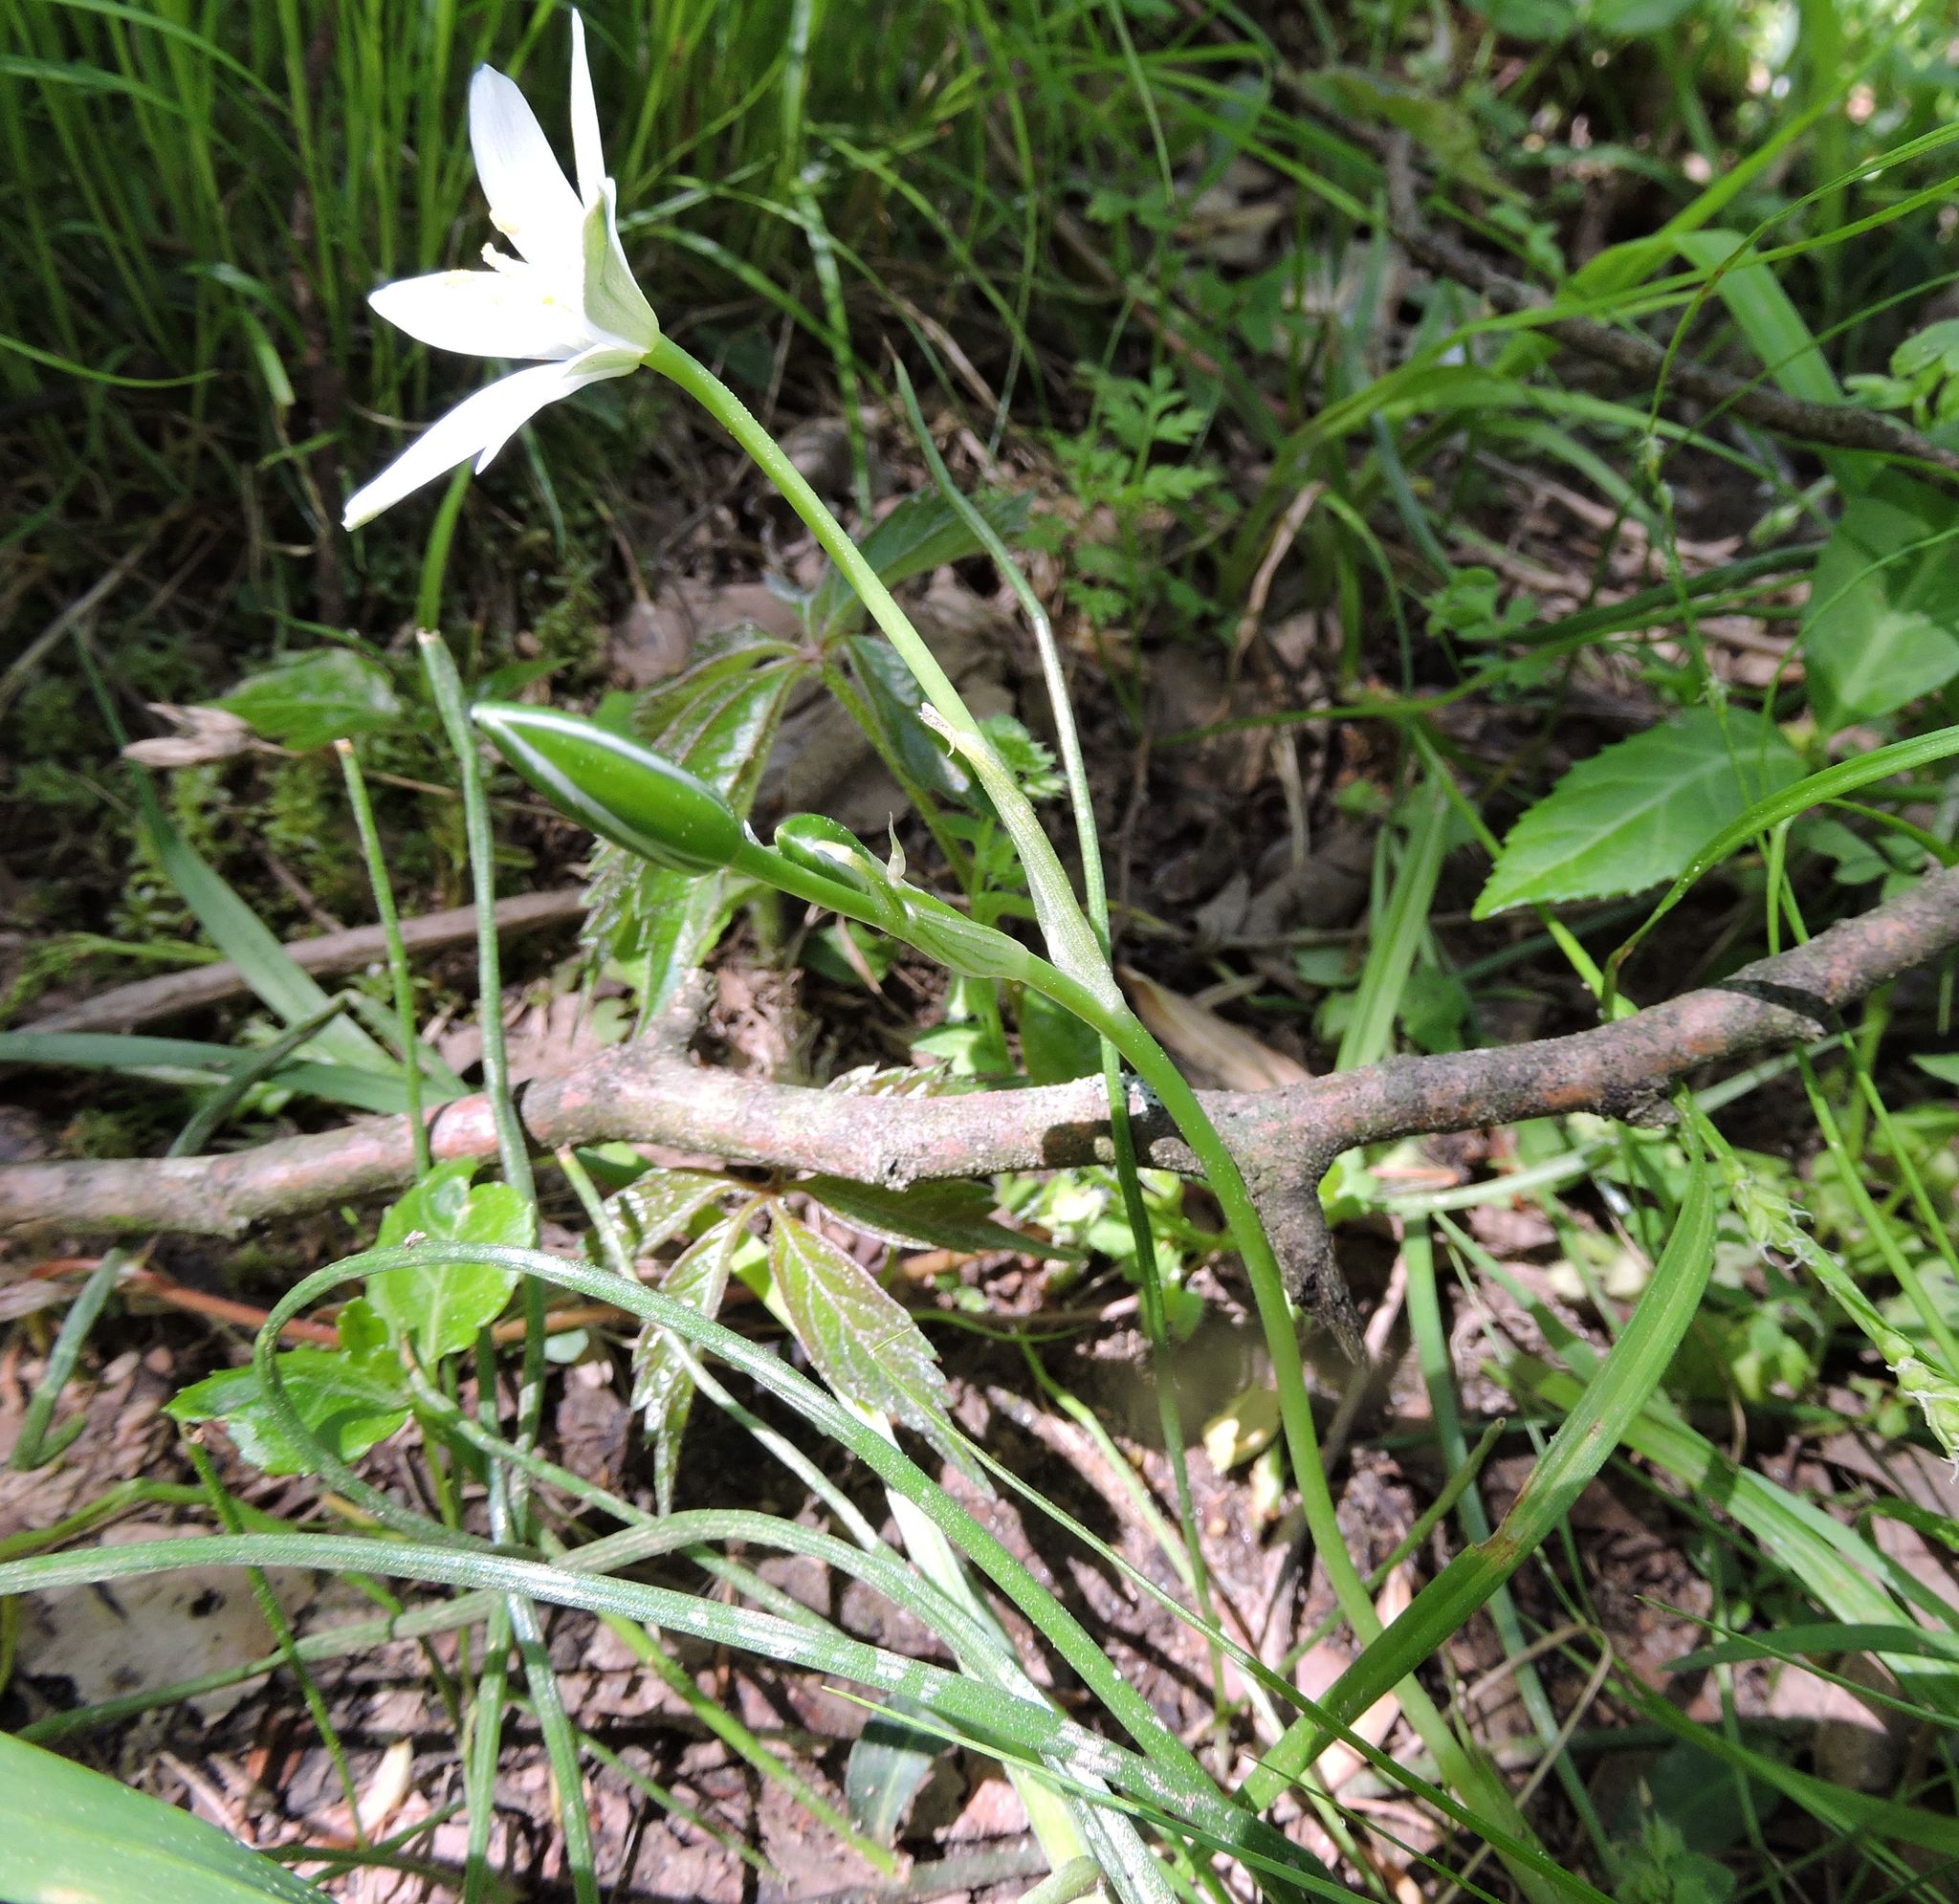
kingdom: Plantae
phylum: Tracheophyta
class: Liliopsida
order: Asparagales
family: Asparagaceae
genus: Ornithogalum
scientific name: Ornithogalum umbellatum
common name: Garden star-of-bethlehem
